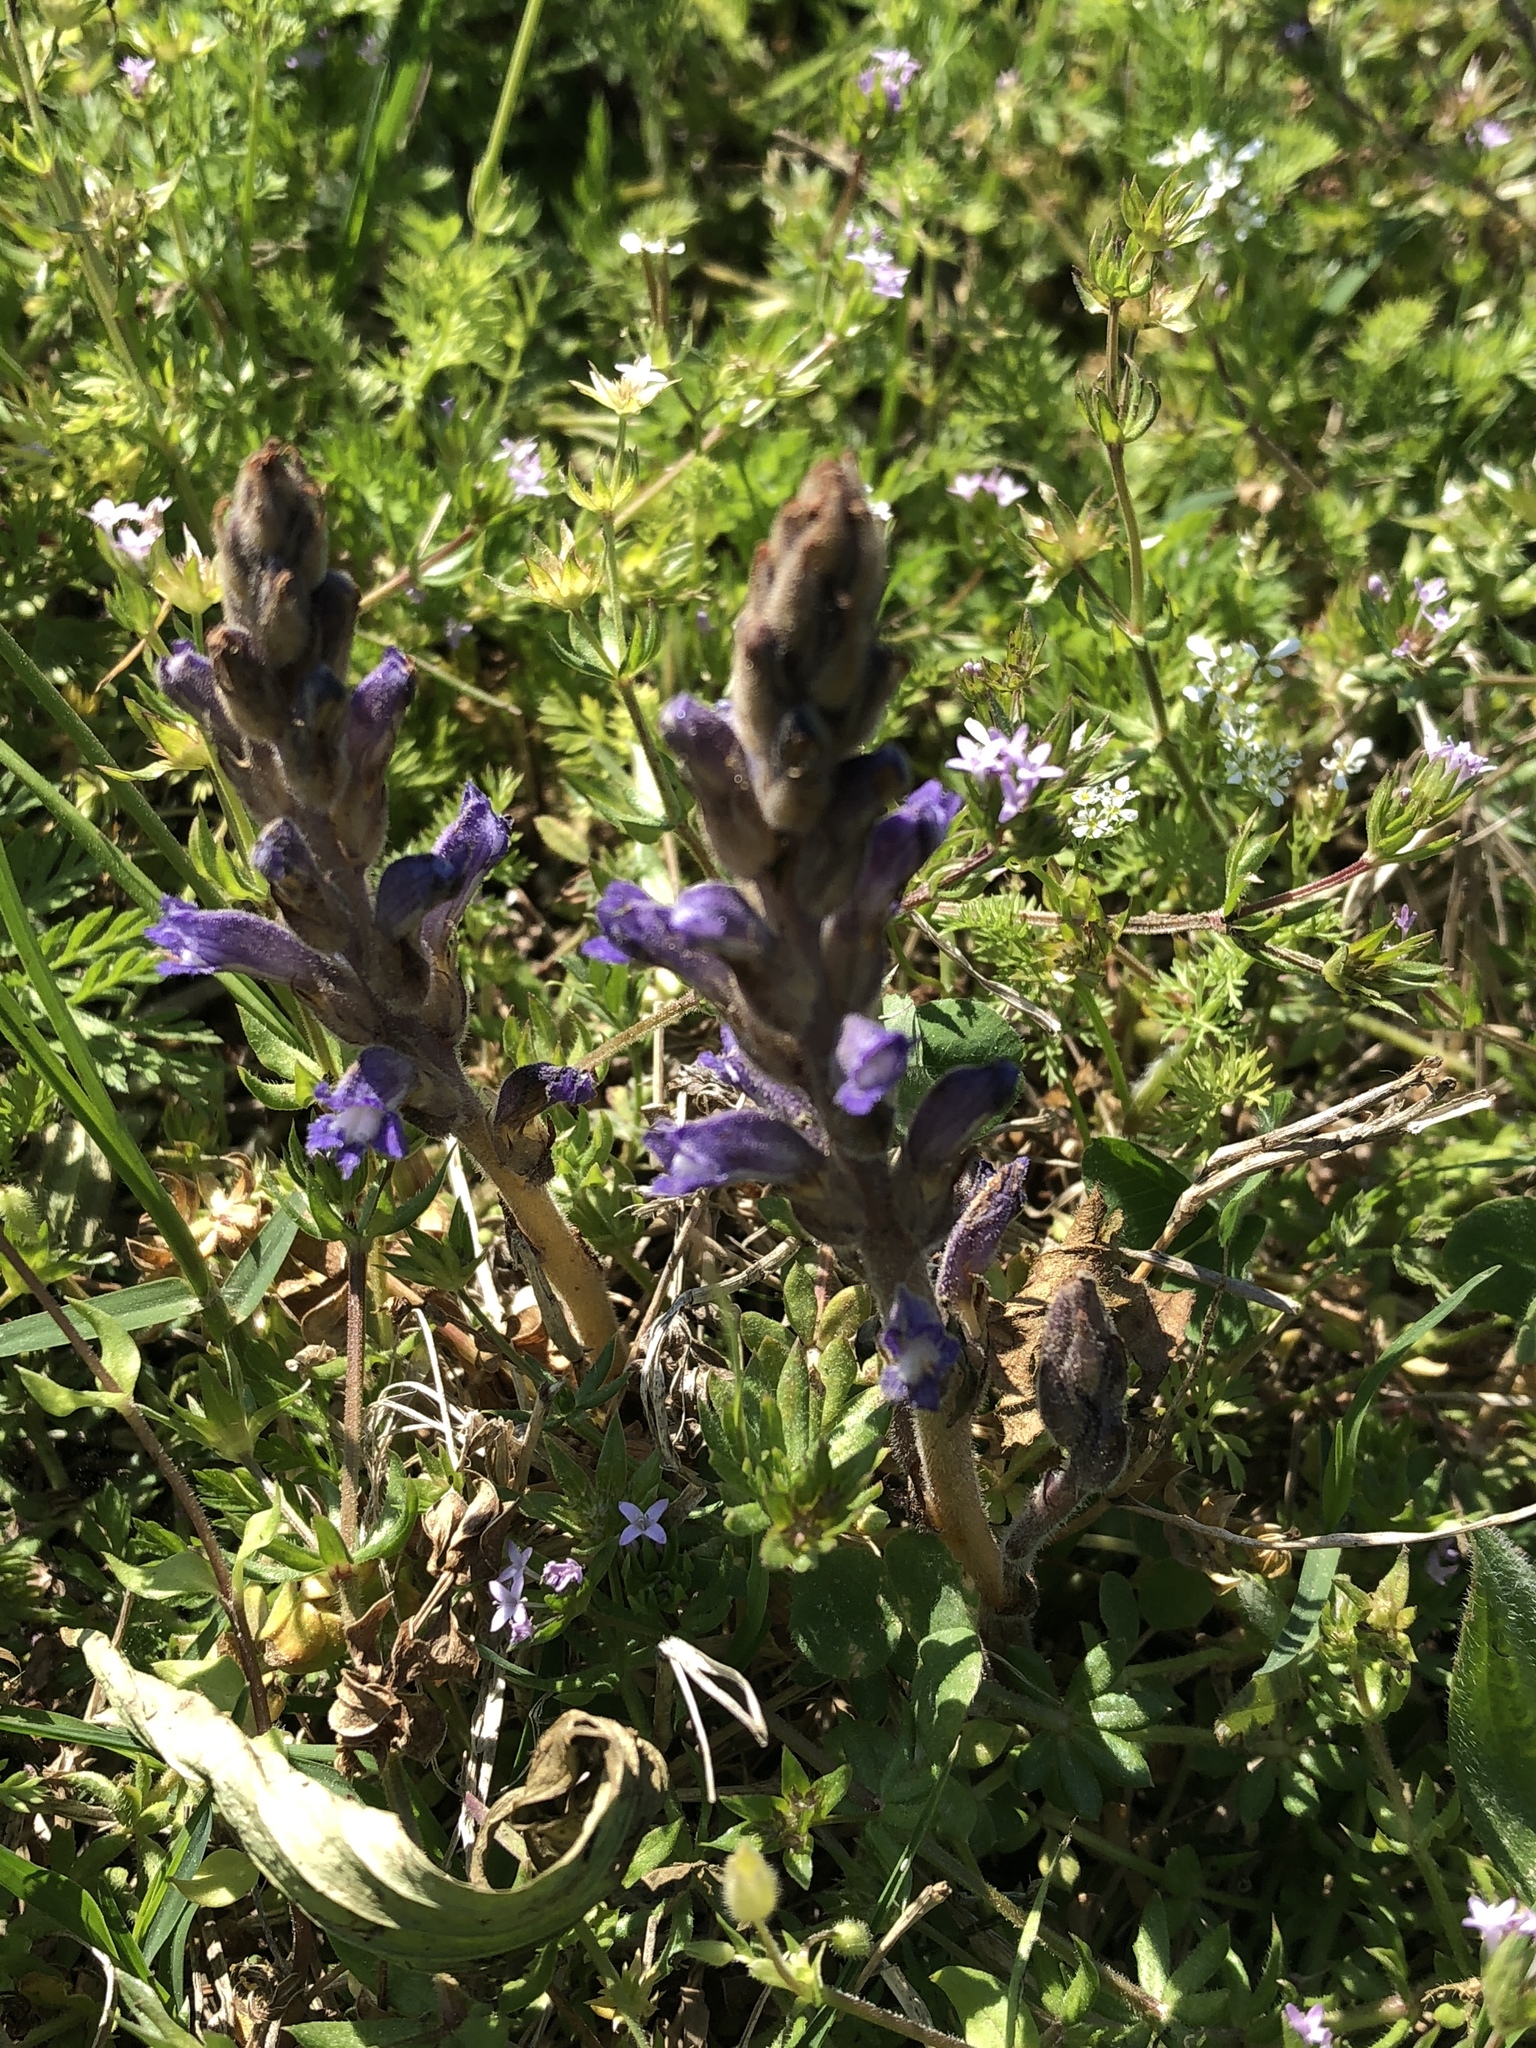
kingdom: Plantae
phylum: Tracheophyta
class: Magnoliopsida
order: Lamiales
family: Orobanchaceae
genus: Phelipanche
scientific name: Phelipanche ramosa
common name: Branched broomrape
